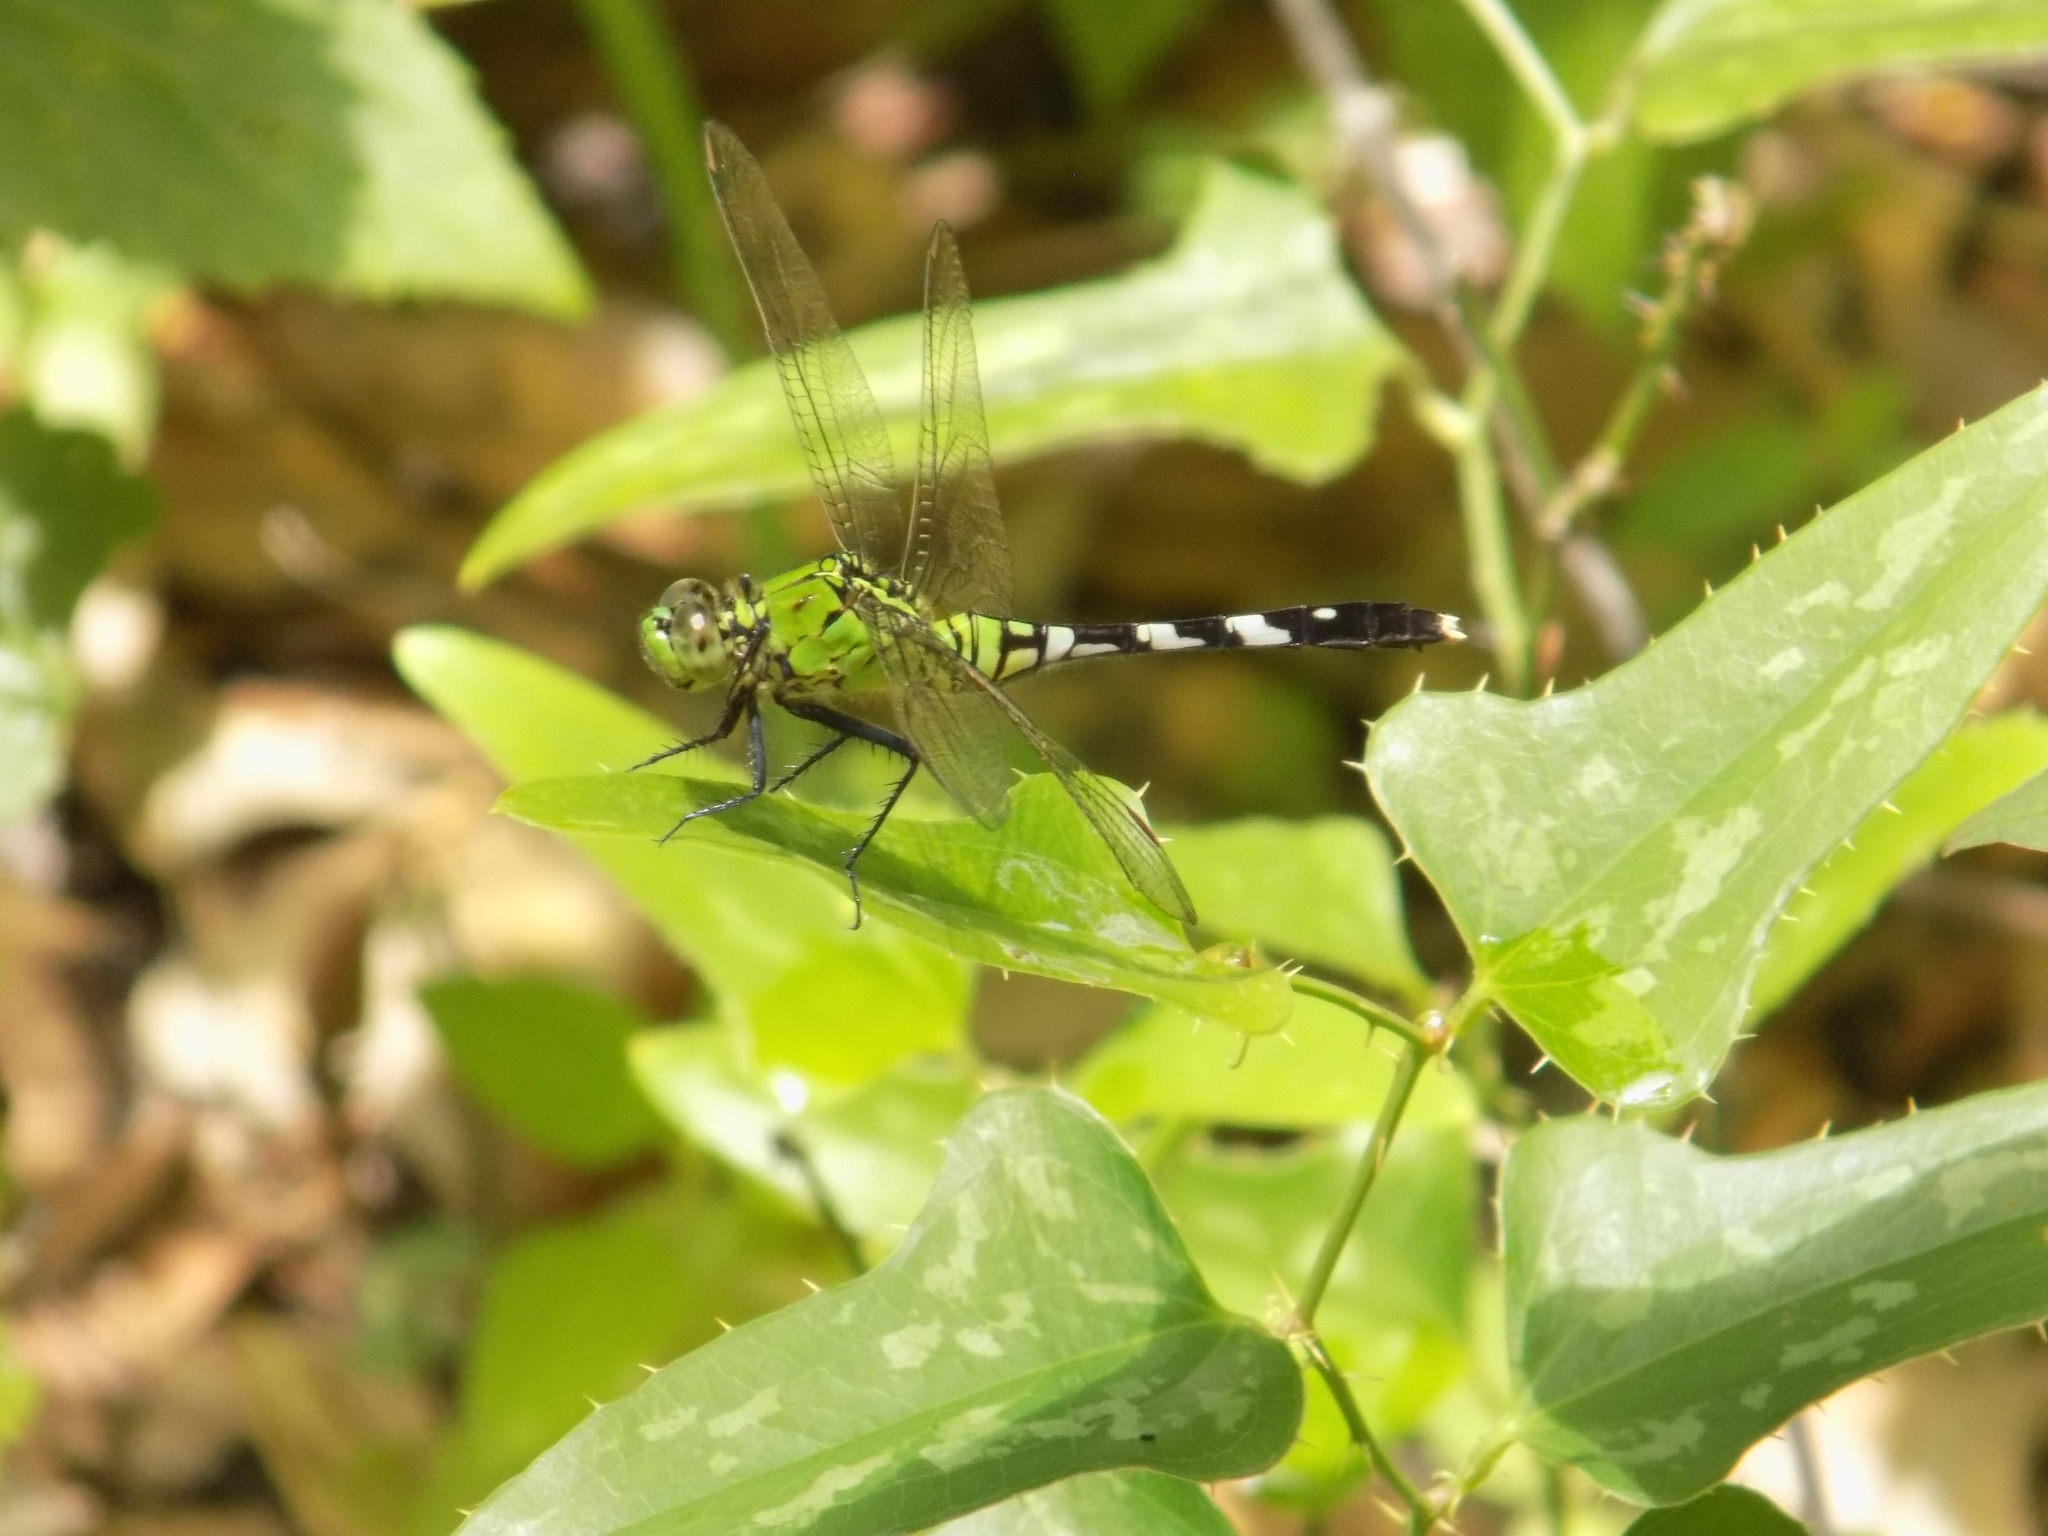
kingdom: Animalia
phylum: Arthropoda
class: Insecta
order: Odonata
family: Libellulidae
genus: Erythemis
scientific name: Erythemis simplicicollis
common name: Eastern pondhawk
